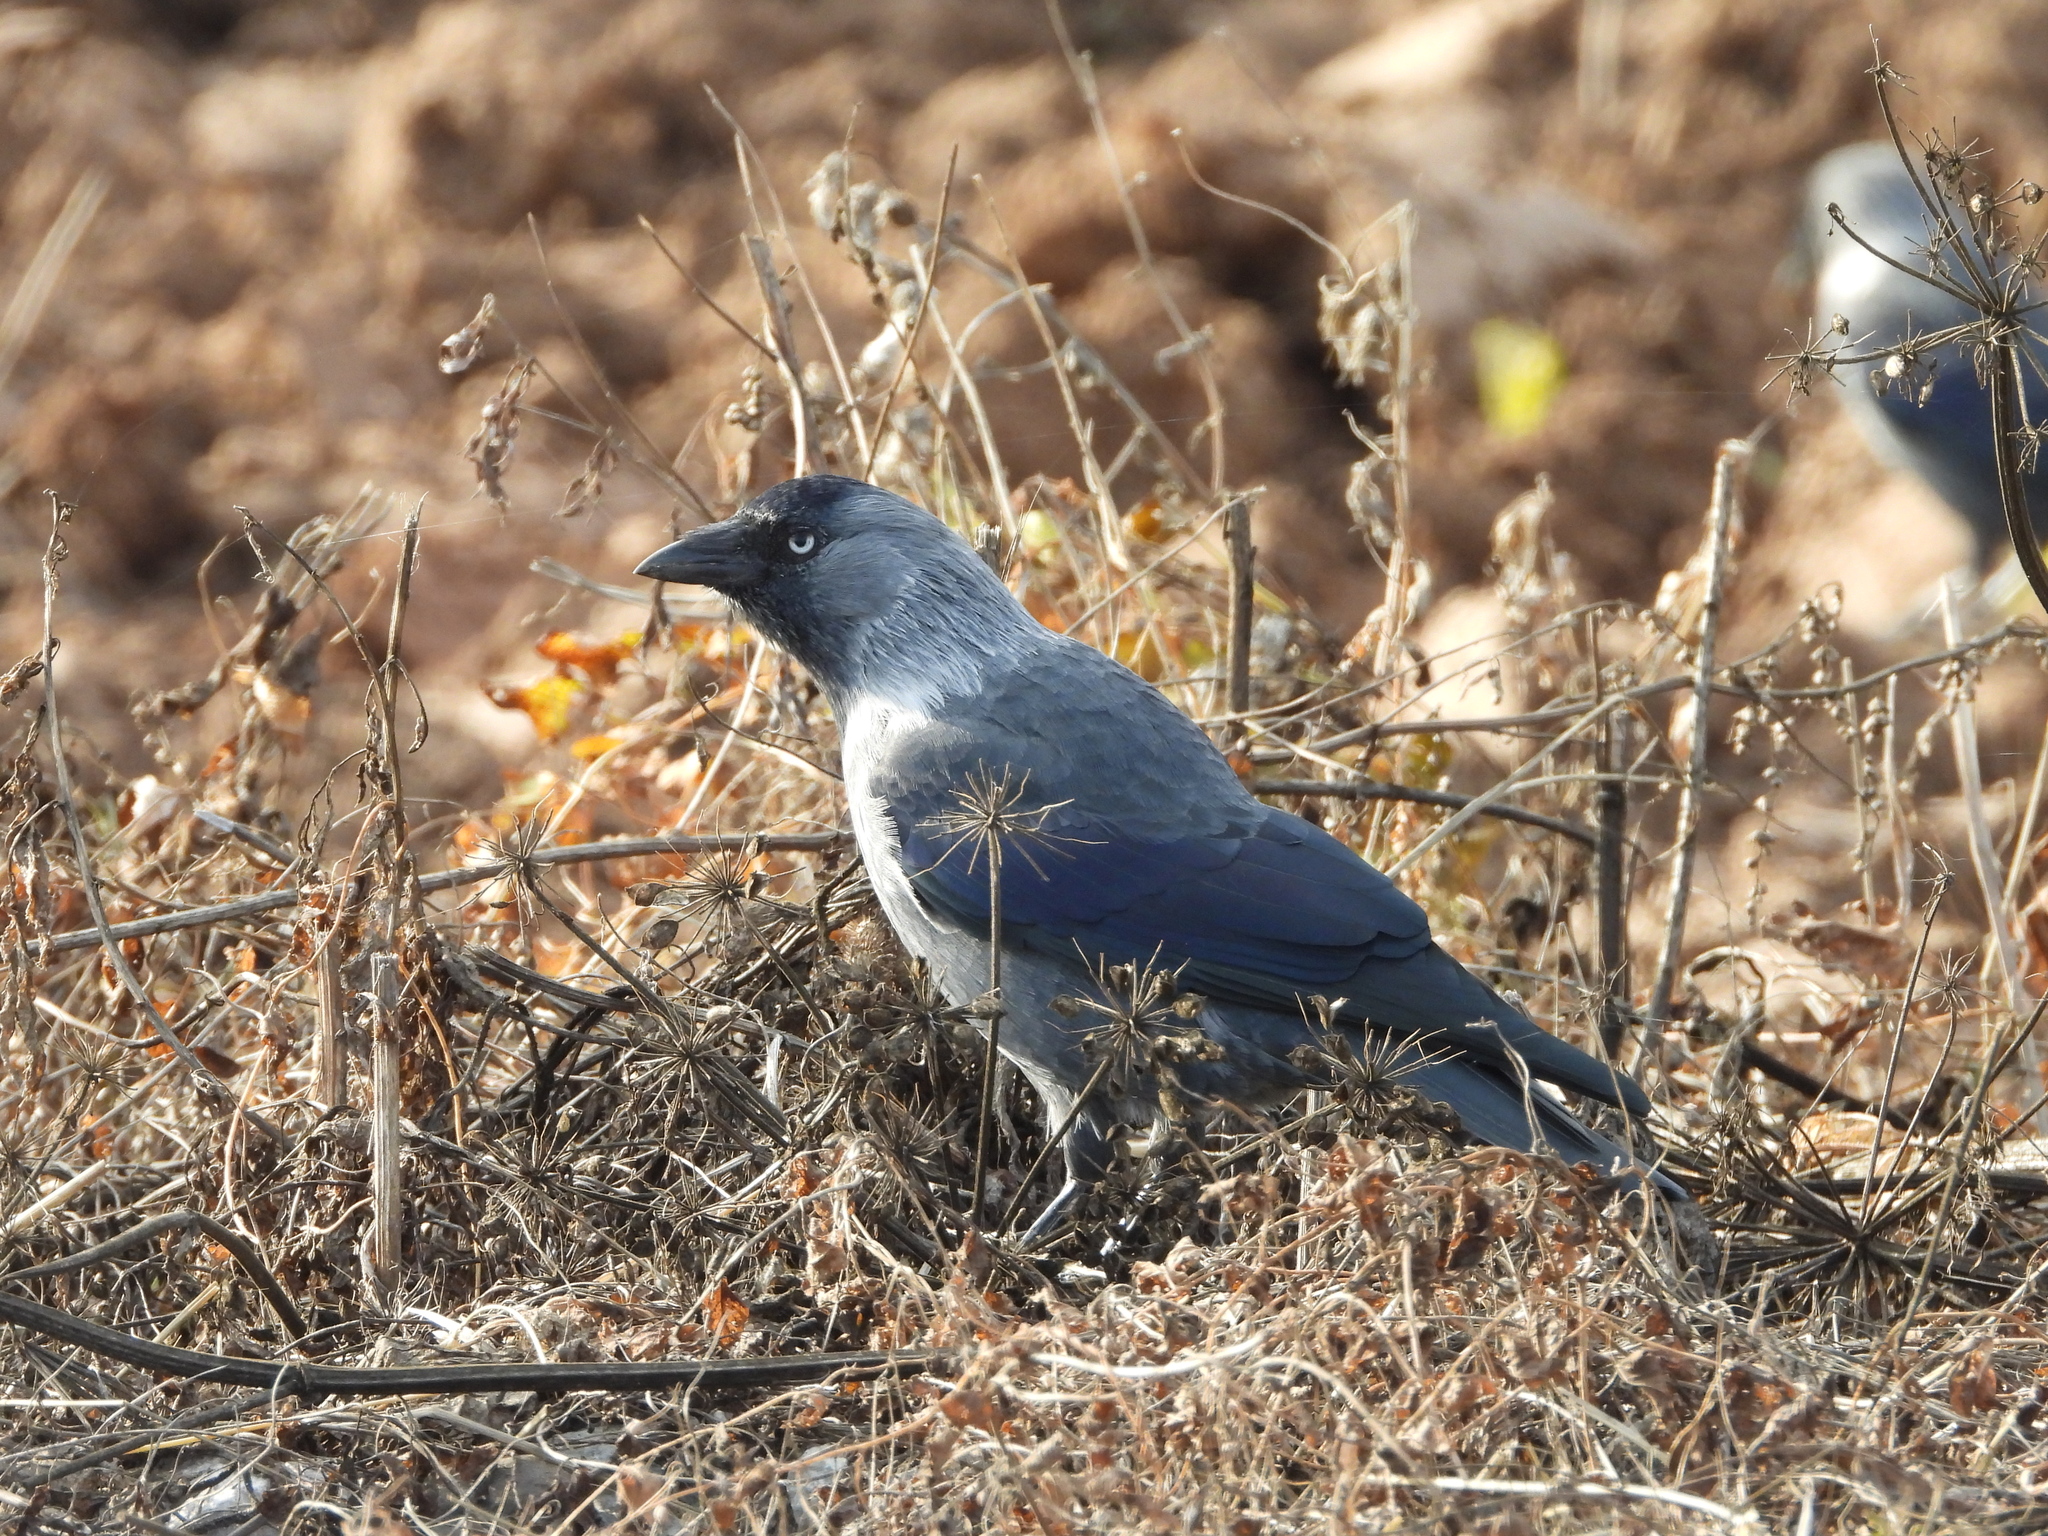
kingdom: Animalia
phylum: Chordata
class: Aves
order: Passeriformes
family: Corvidae
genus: Coloeus
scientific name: Coloeus monedula
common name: Western jackdaw
